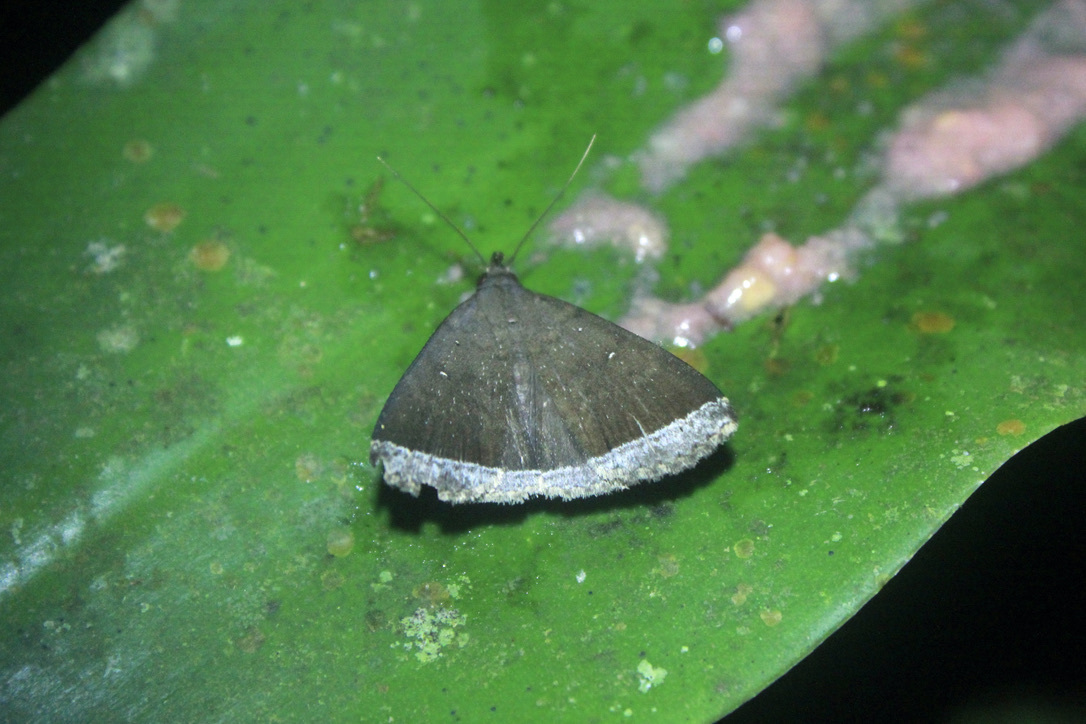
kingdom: Animalia
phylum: Arthropoda
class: Insecta
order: Lepidoptera
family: Erebidae
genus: Mamerthes
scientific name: Mamerthes orionalis
